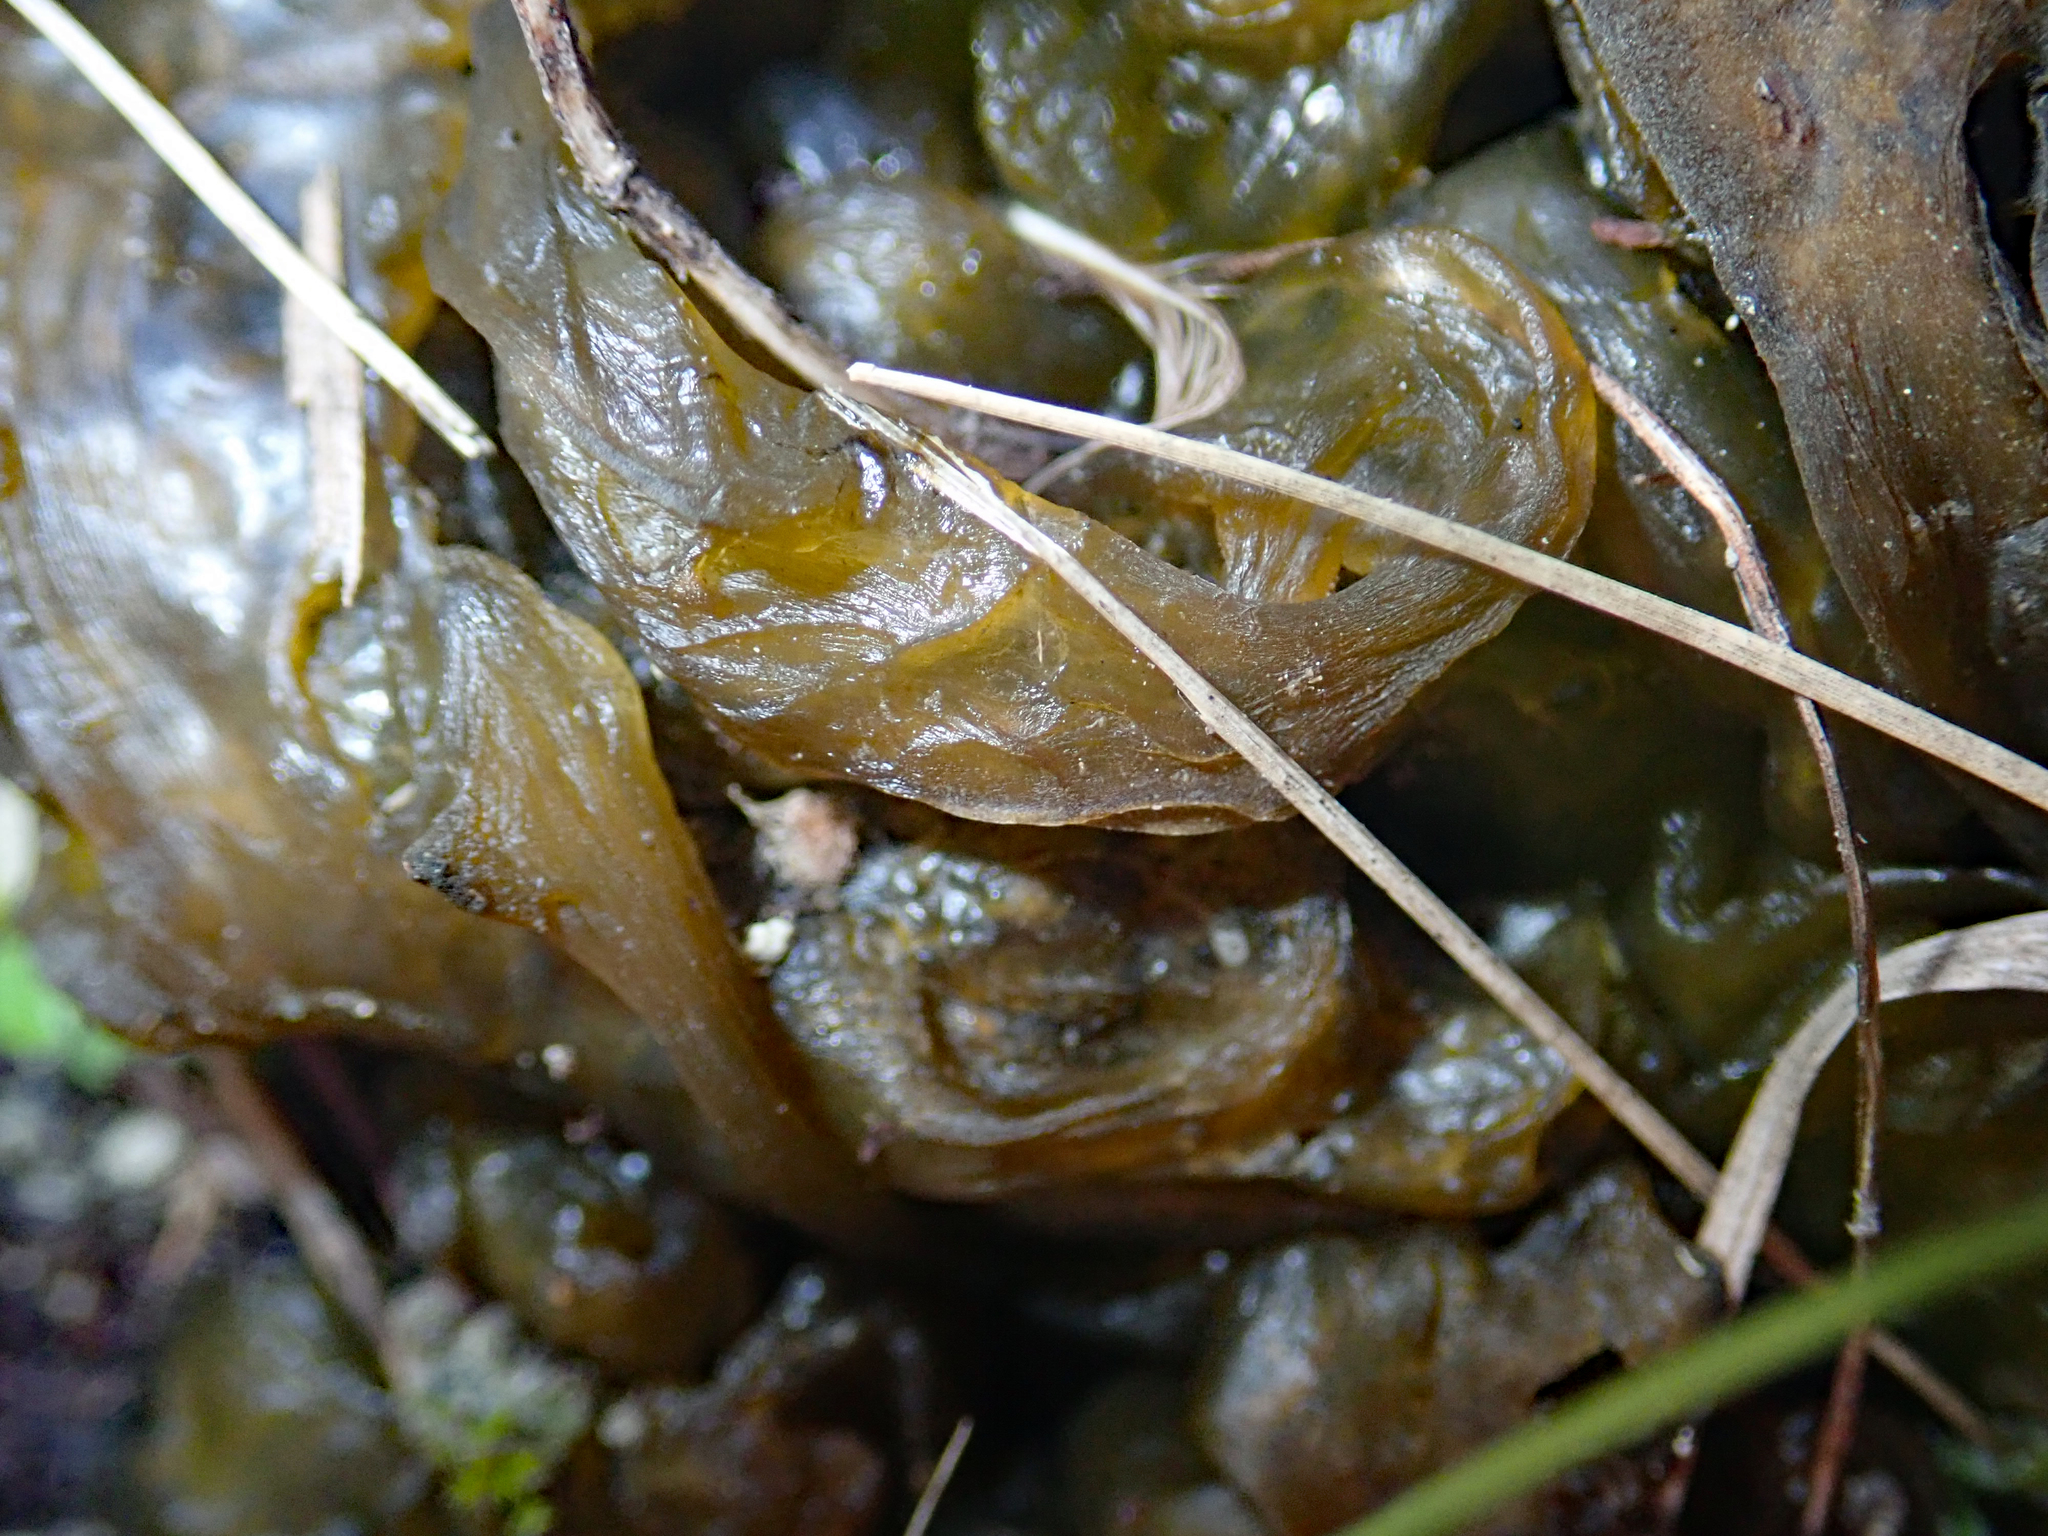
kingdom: Bacteria
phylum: Cyanobacteria
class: Cyanobacteriia
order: Cyanobacteriales
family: Nostocaceae
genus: Nostoc
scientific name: Nostoc commune
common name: Star jelly
